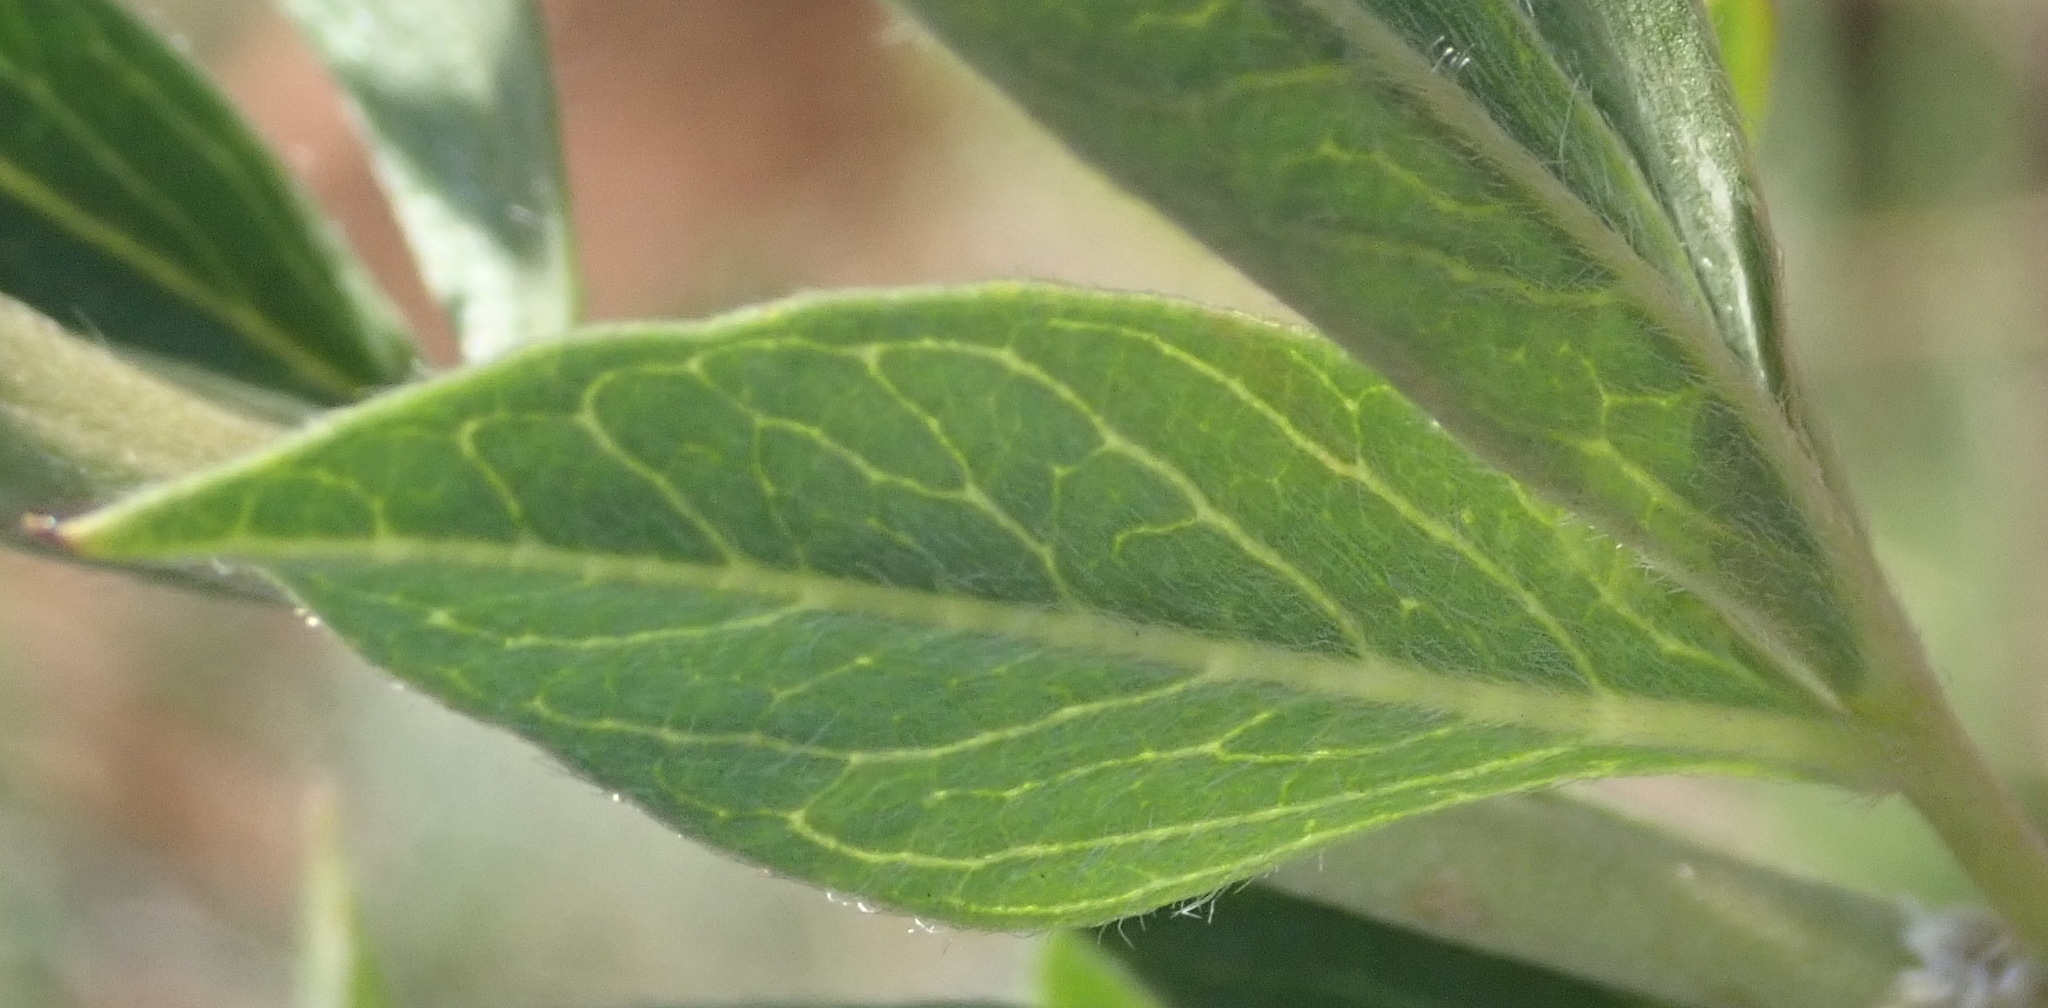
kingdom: Plantae
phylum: Tracheophyta
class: Magnoliopsida
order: Fabales
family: Fabaceae
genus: Pearsonia
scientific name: Pearsonia cajanifolia
